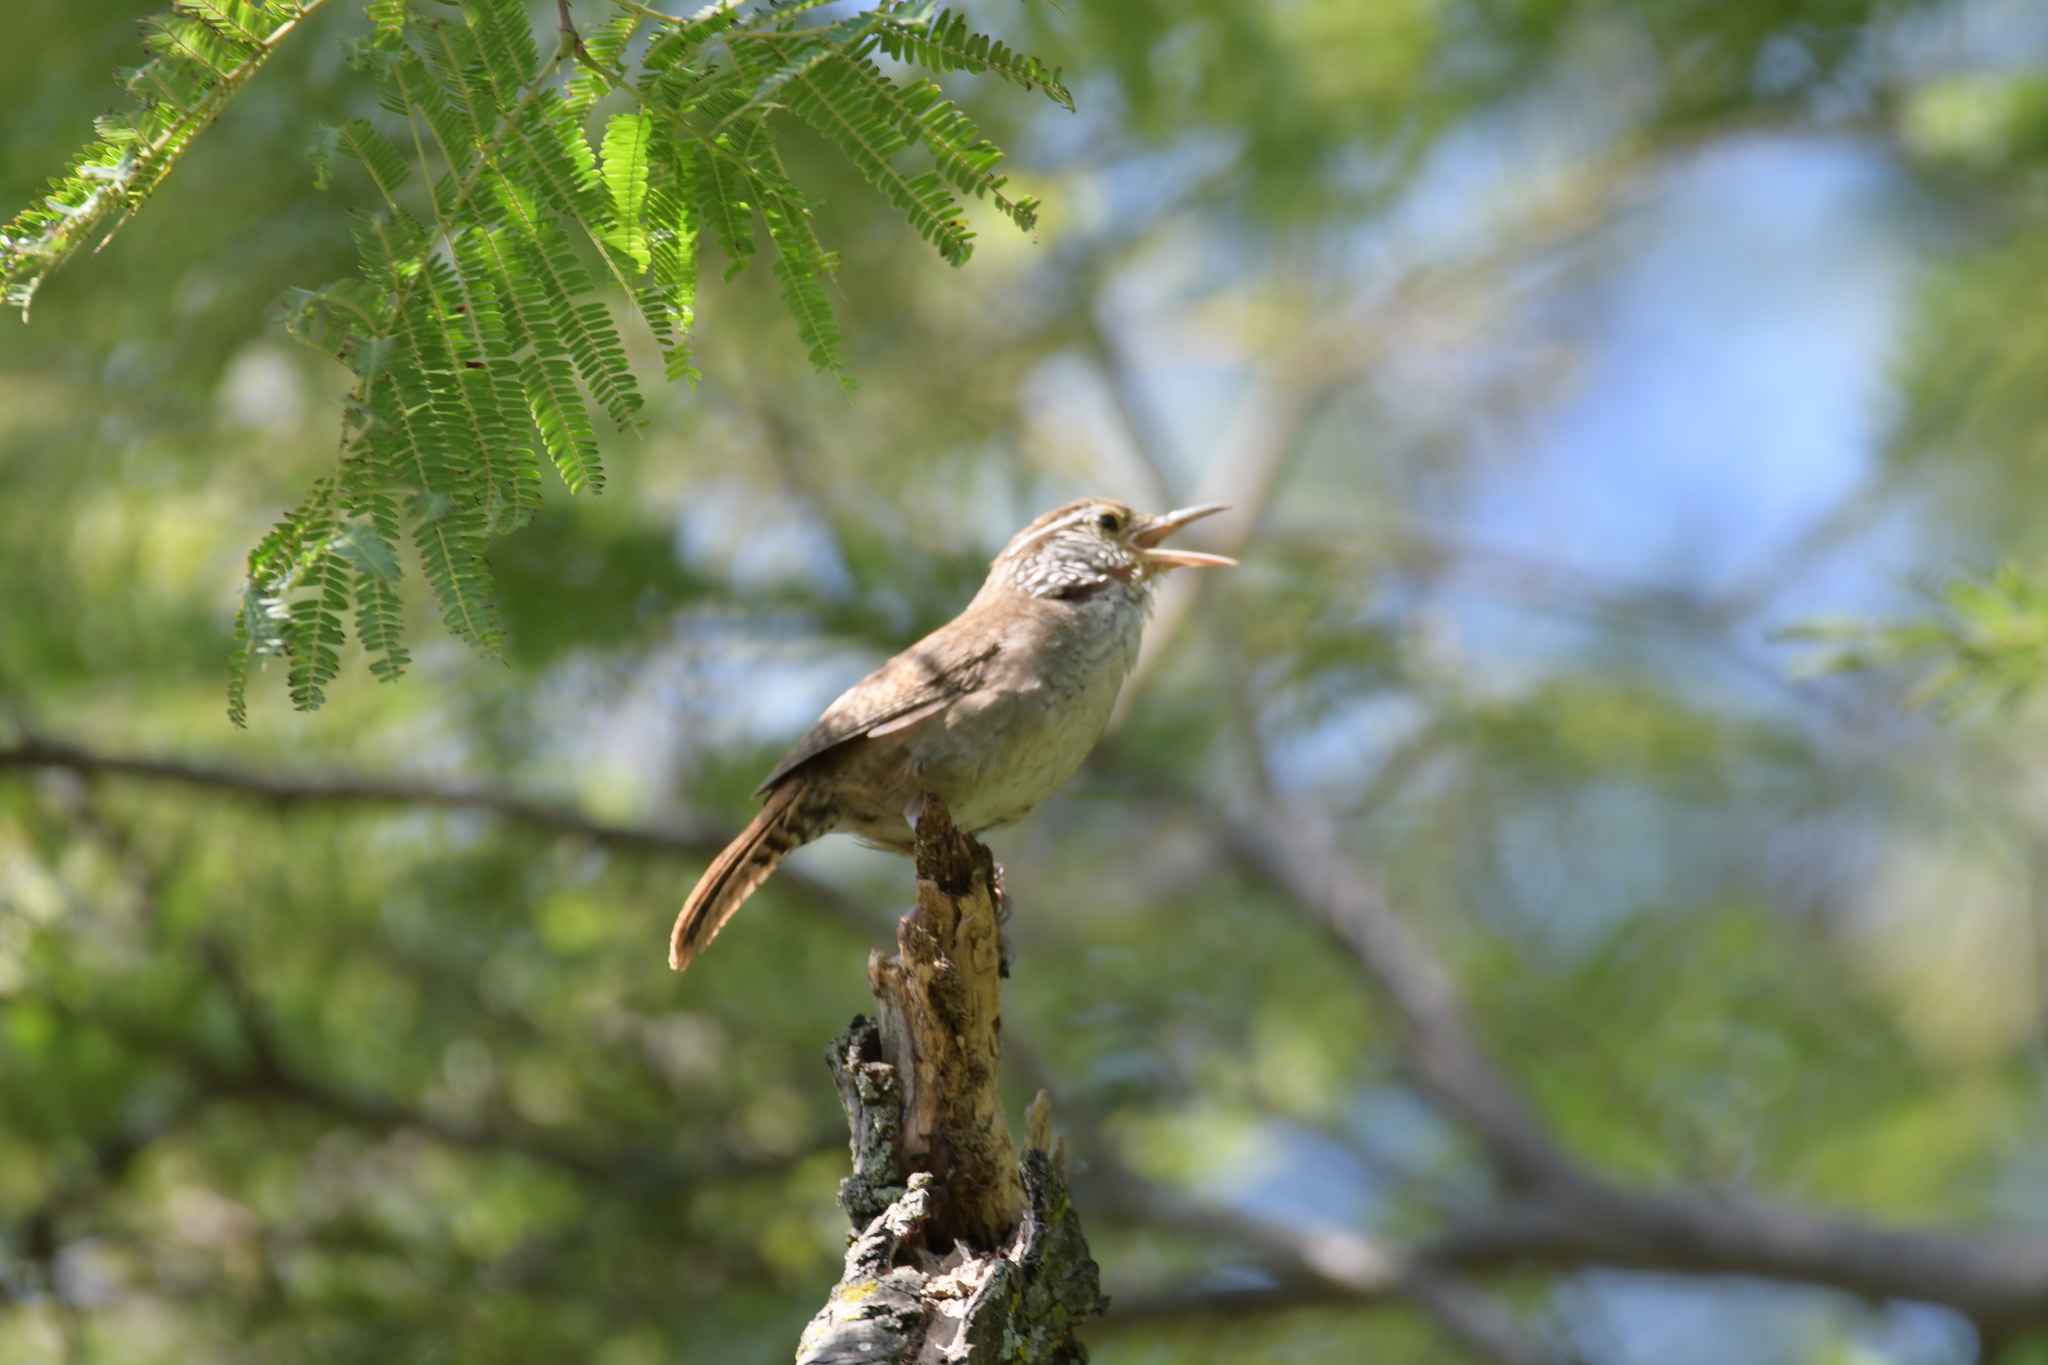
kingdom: Animalia
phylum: Chordata
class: Aves
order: Passeriformes
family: Troglodytidae
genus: Thryophilus
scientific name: Thryophilus sinaloa
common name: Sinaloa wren
